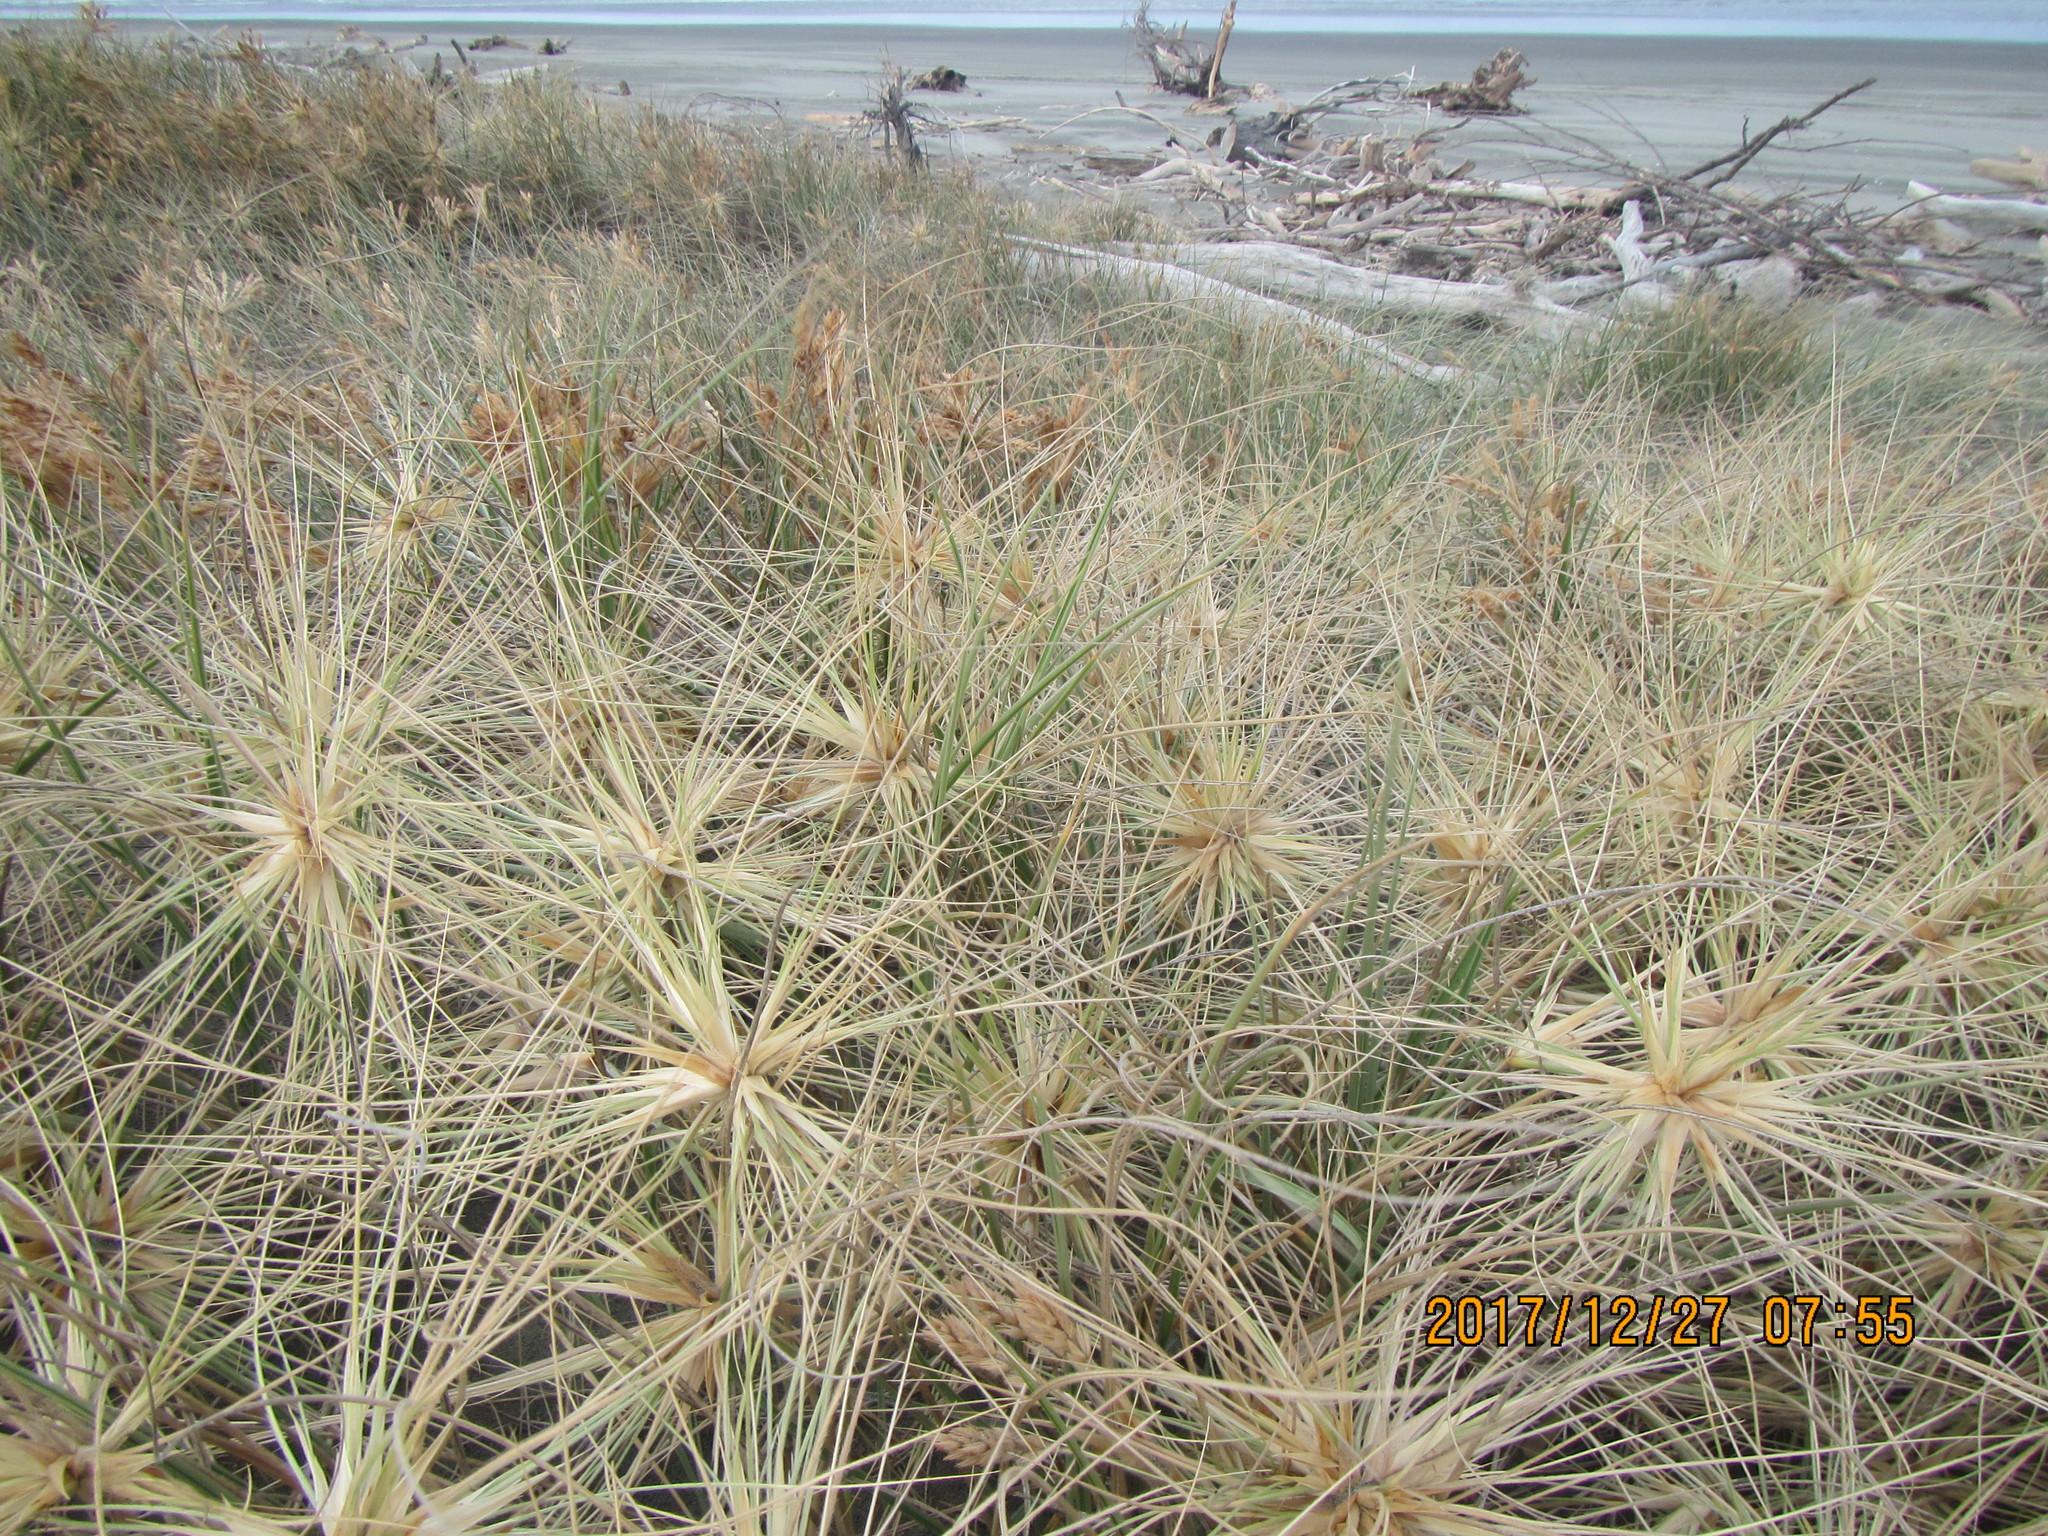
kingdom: Plantae
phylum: Tracheophyta
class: Liliopsida
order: Poales
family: Poaceae
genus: Spinifex
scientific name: Spinifex sericeus
